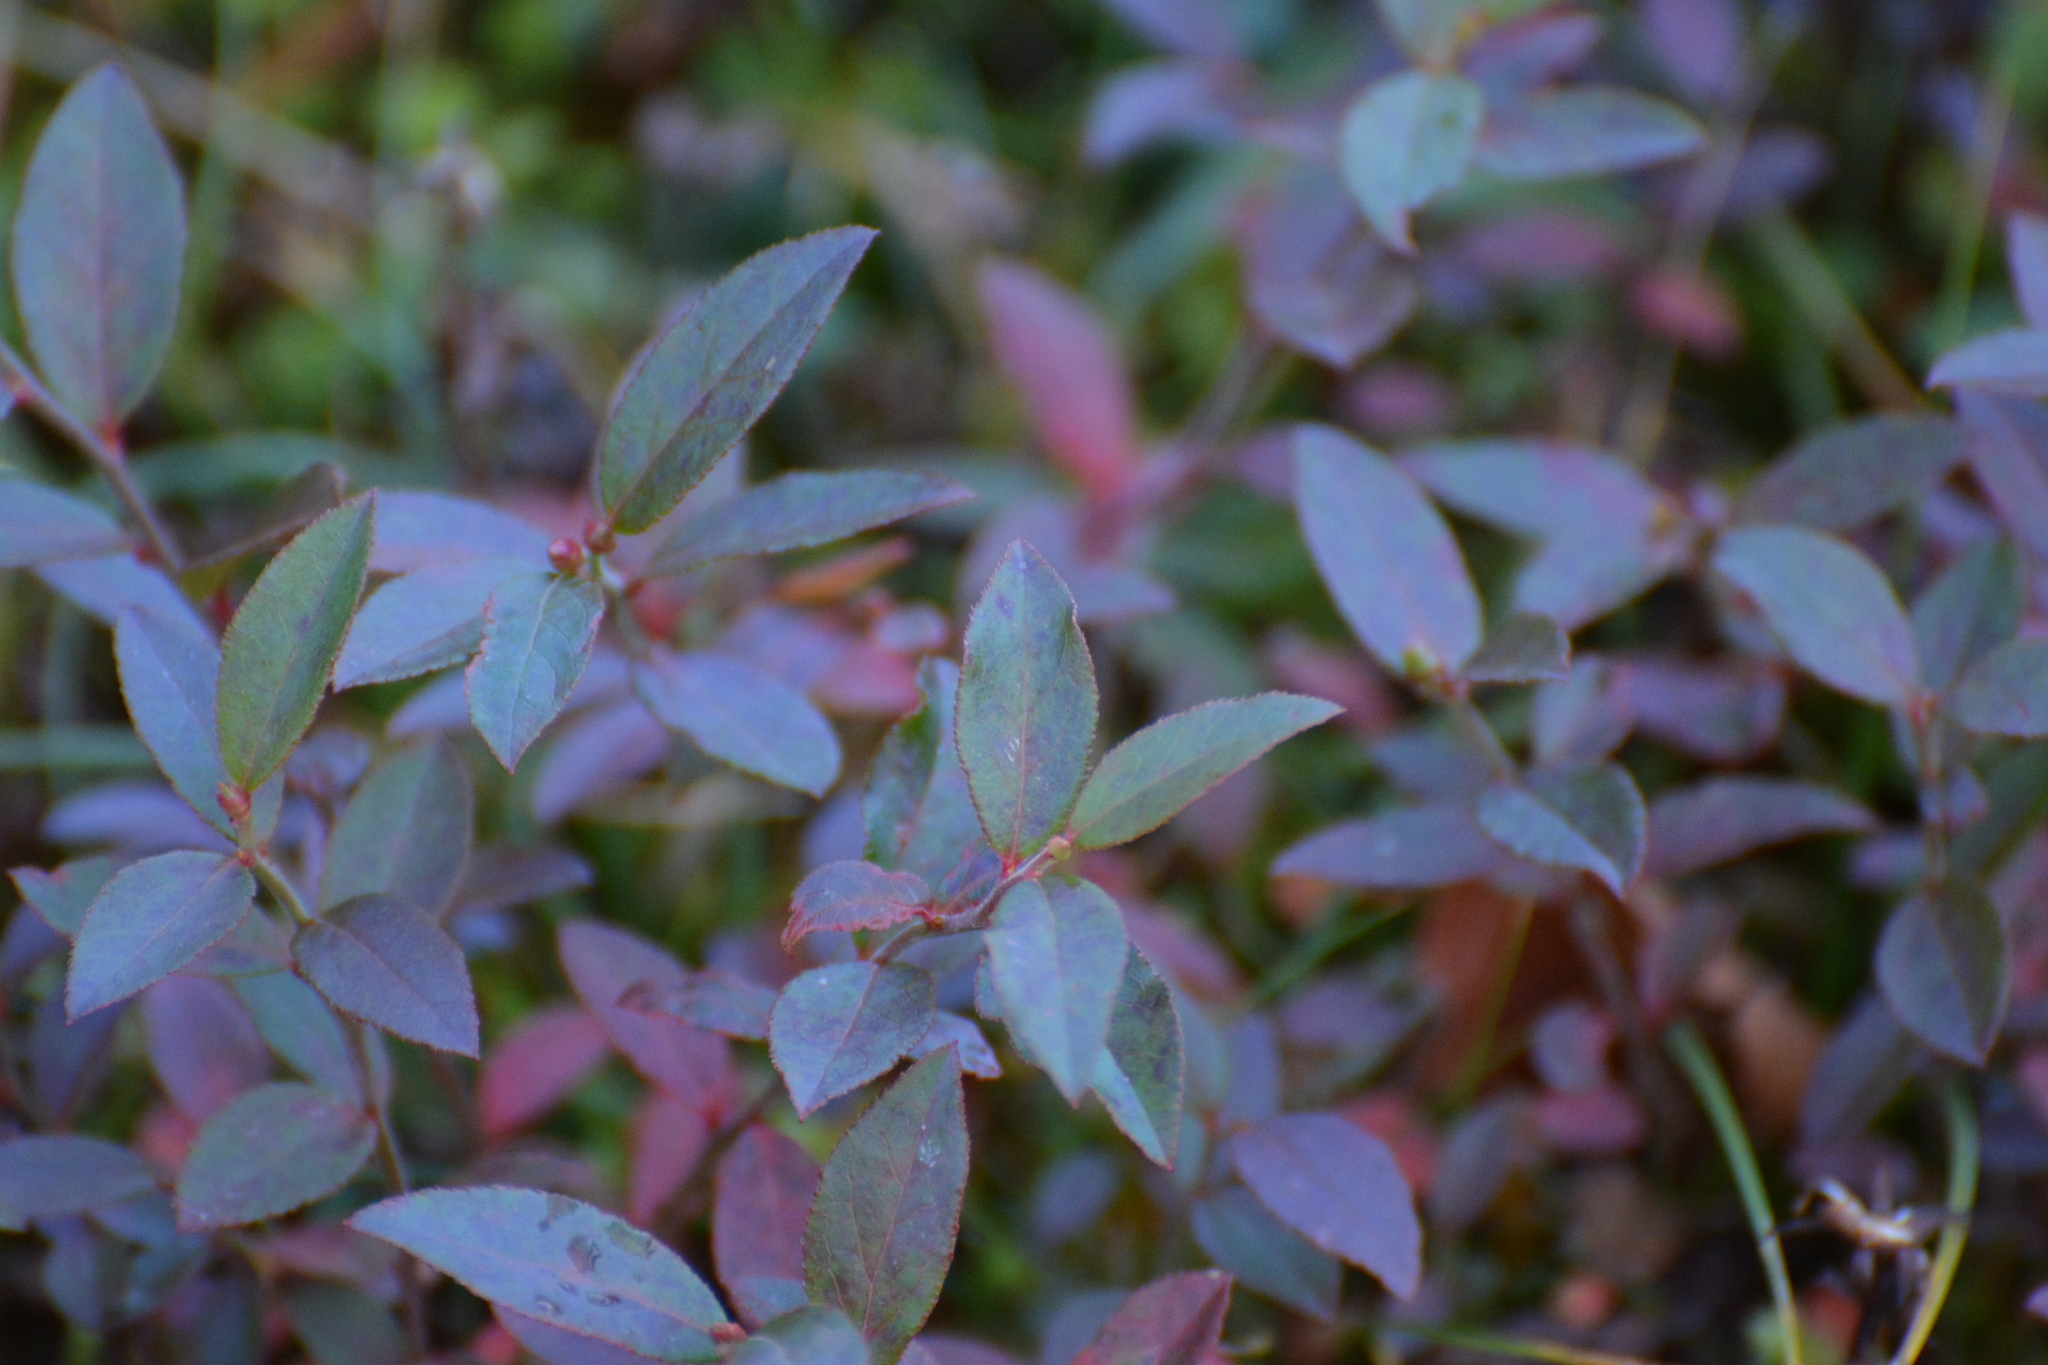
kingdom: Plantae
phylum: Tracheophyta
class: Magnoliopsida
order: Ericales
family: Ericaceae
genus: Vaccinium
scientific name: Vaccinium angustifolium
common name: Early lowbush blueberry
